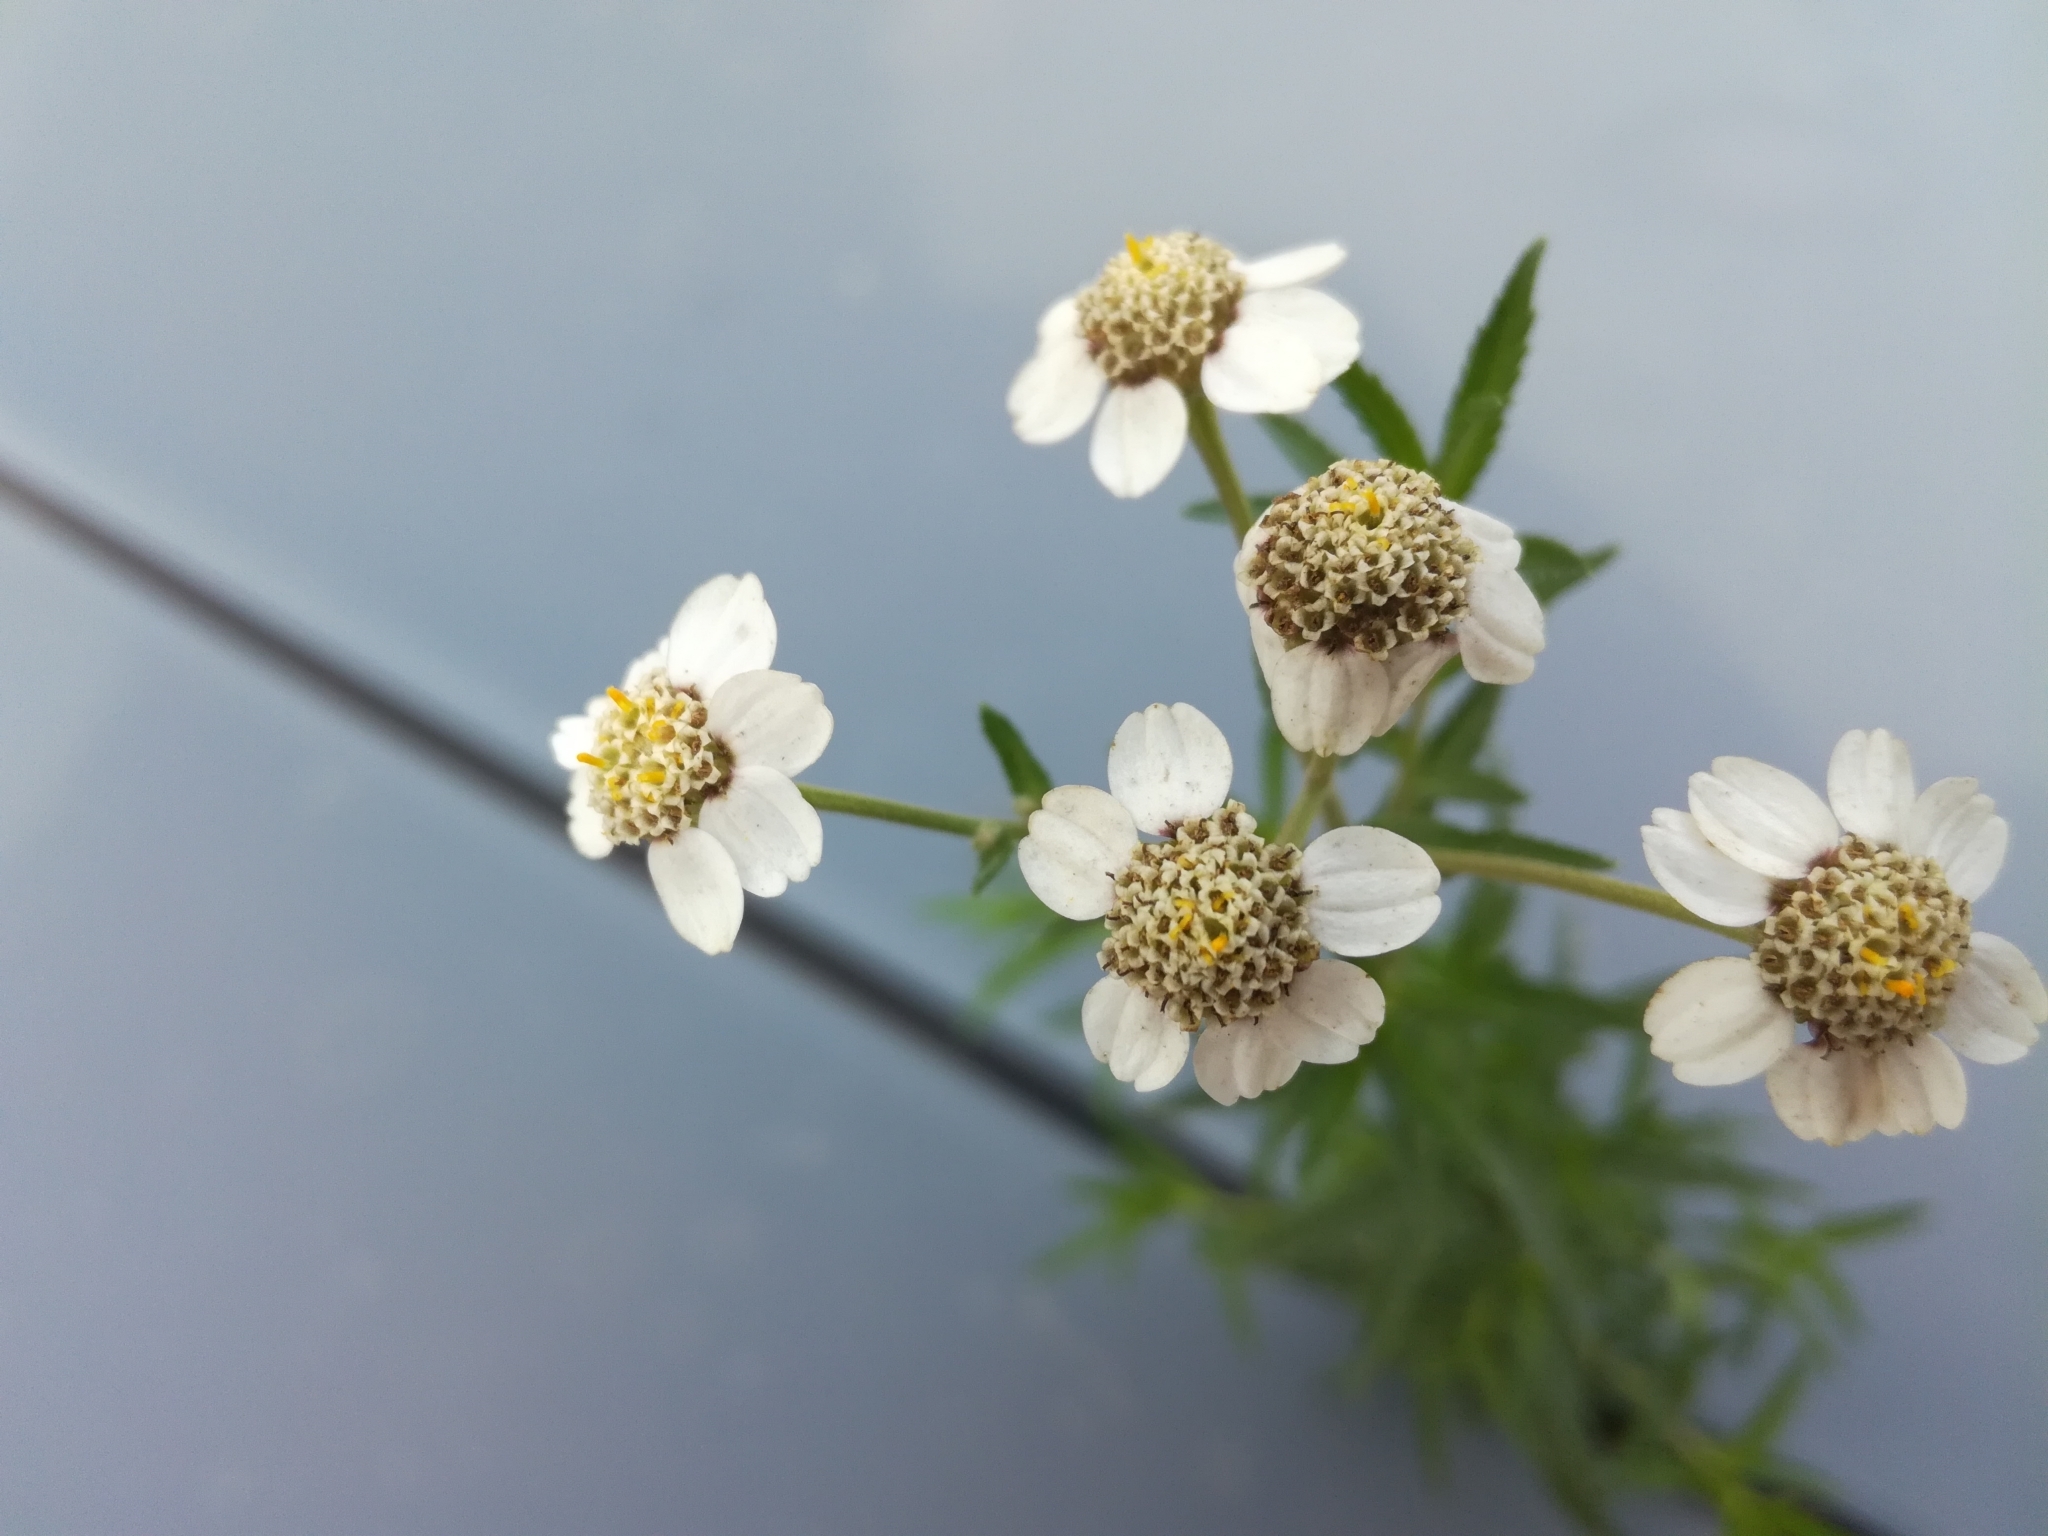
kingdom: Plantae
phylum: Tracheophyta
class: Magnoliopsida
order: Asterales
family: Asteraceae
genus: Achillea
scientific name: Achillea ptarmica
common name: Sneezeweed
